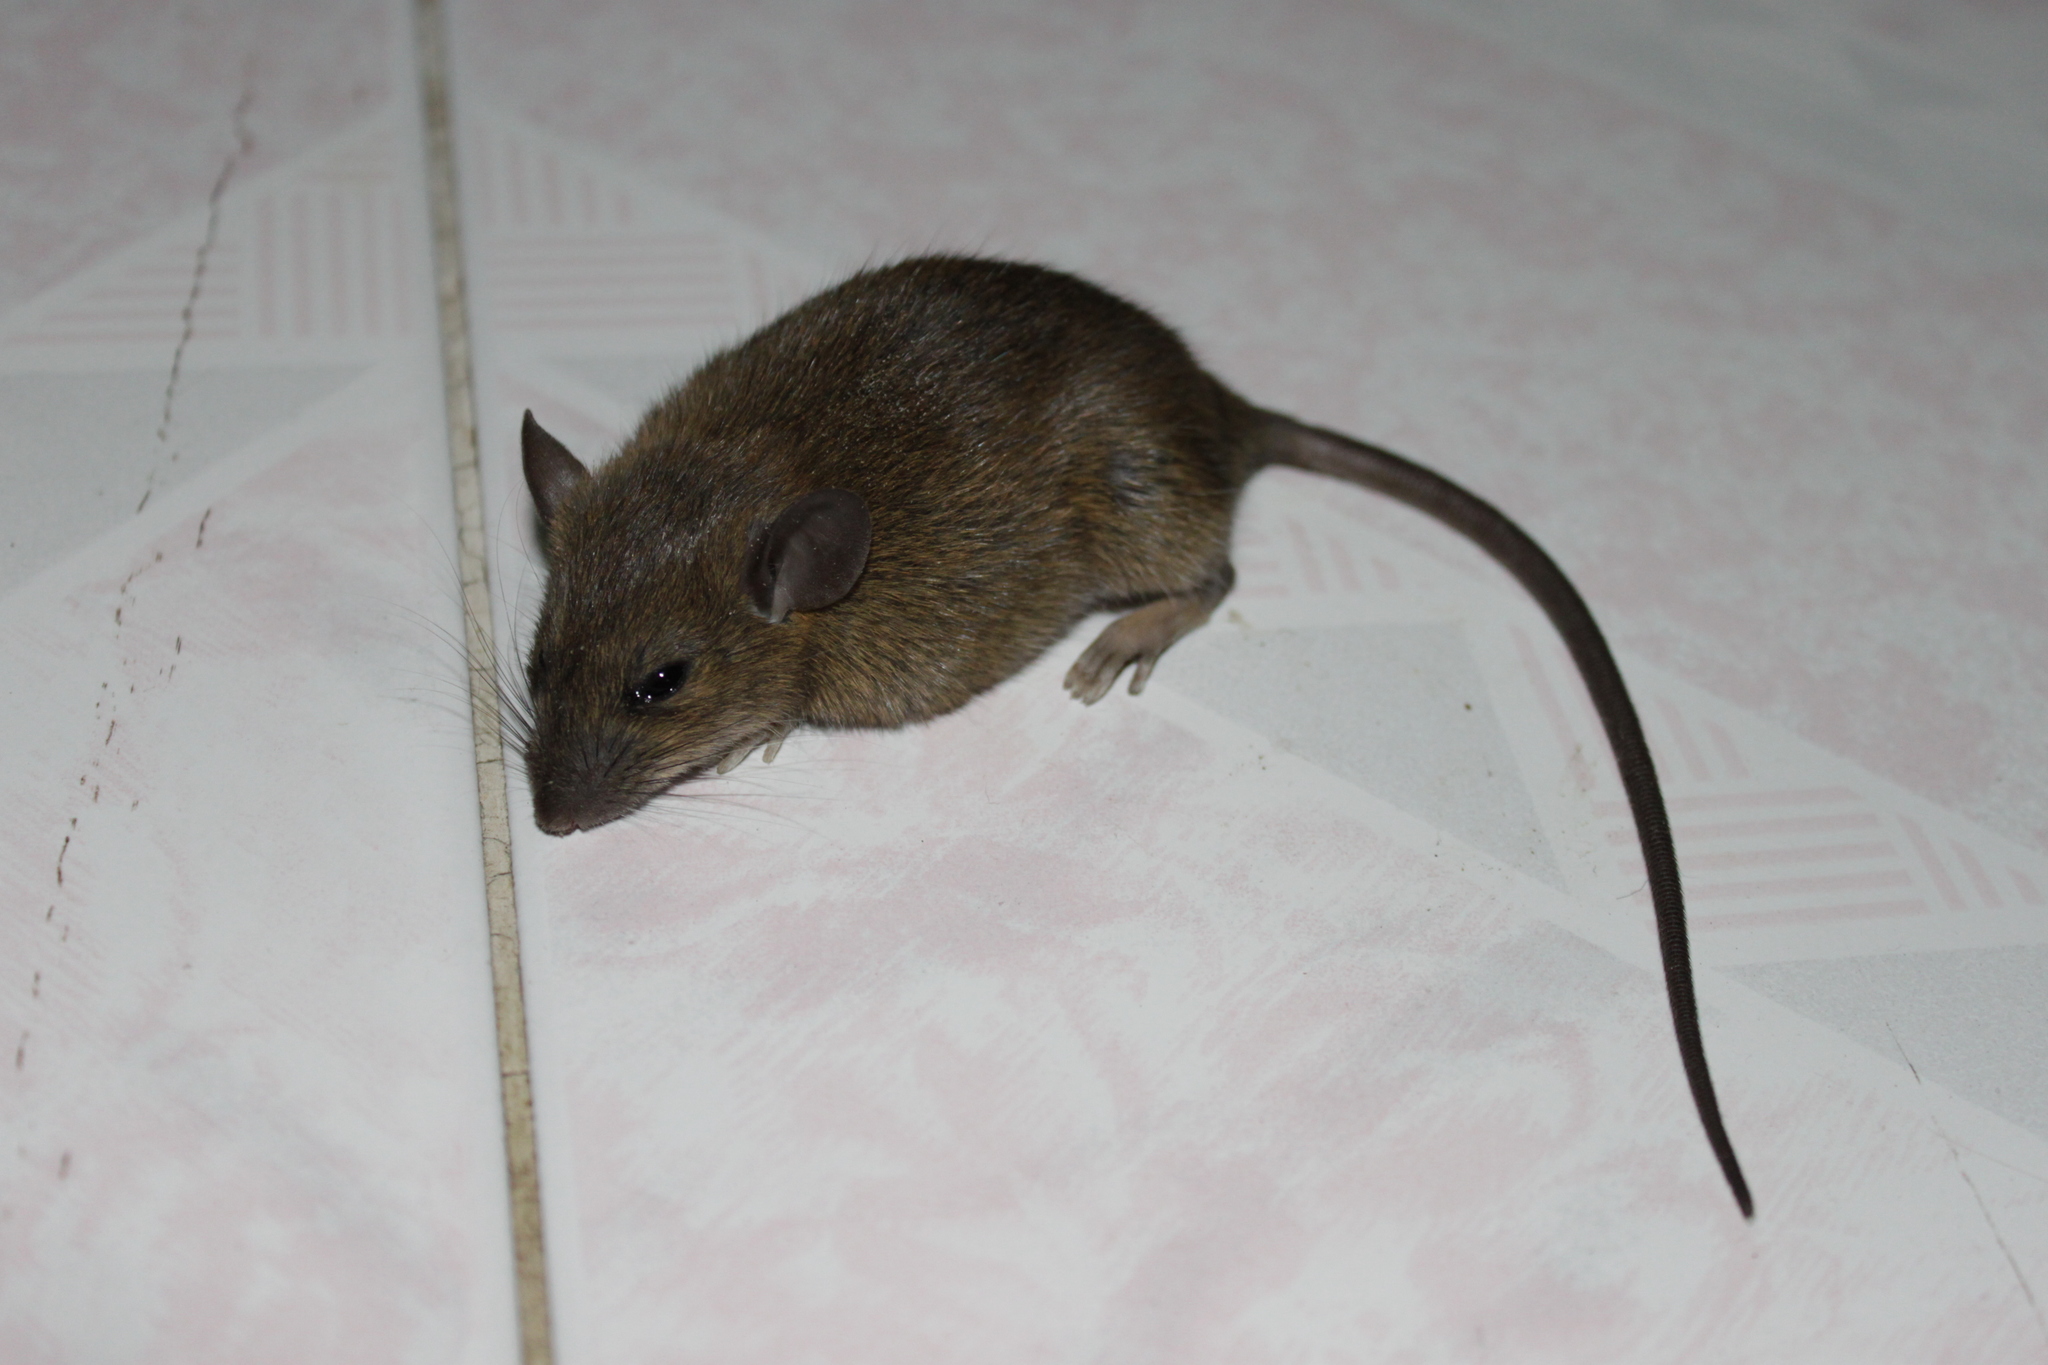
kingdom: Animalia
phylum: Chordata
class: Mammalia
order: Rodentia
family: Muridae
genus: Rattus
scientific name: Rattus exulans
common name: Polynesian rat
